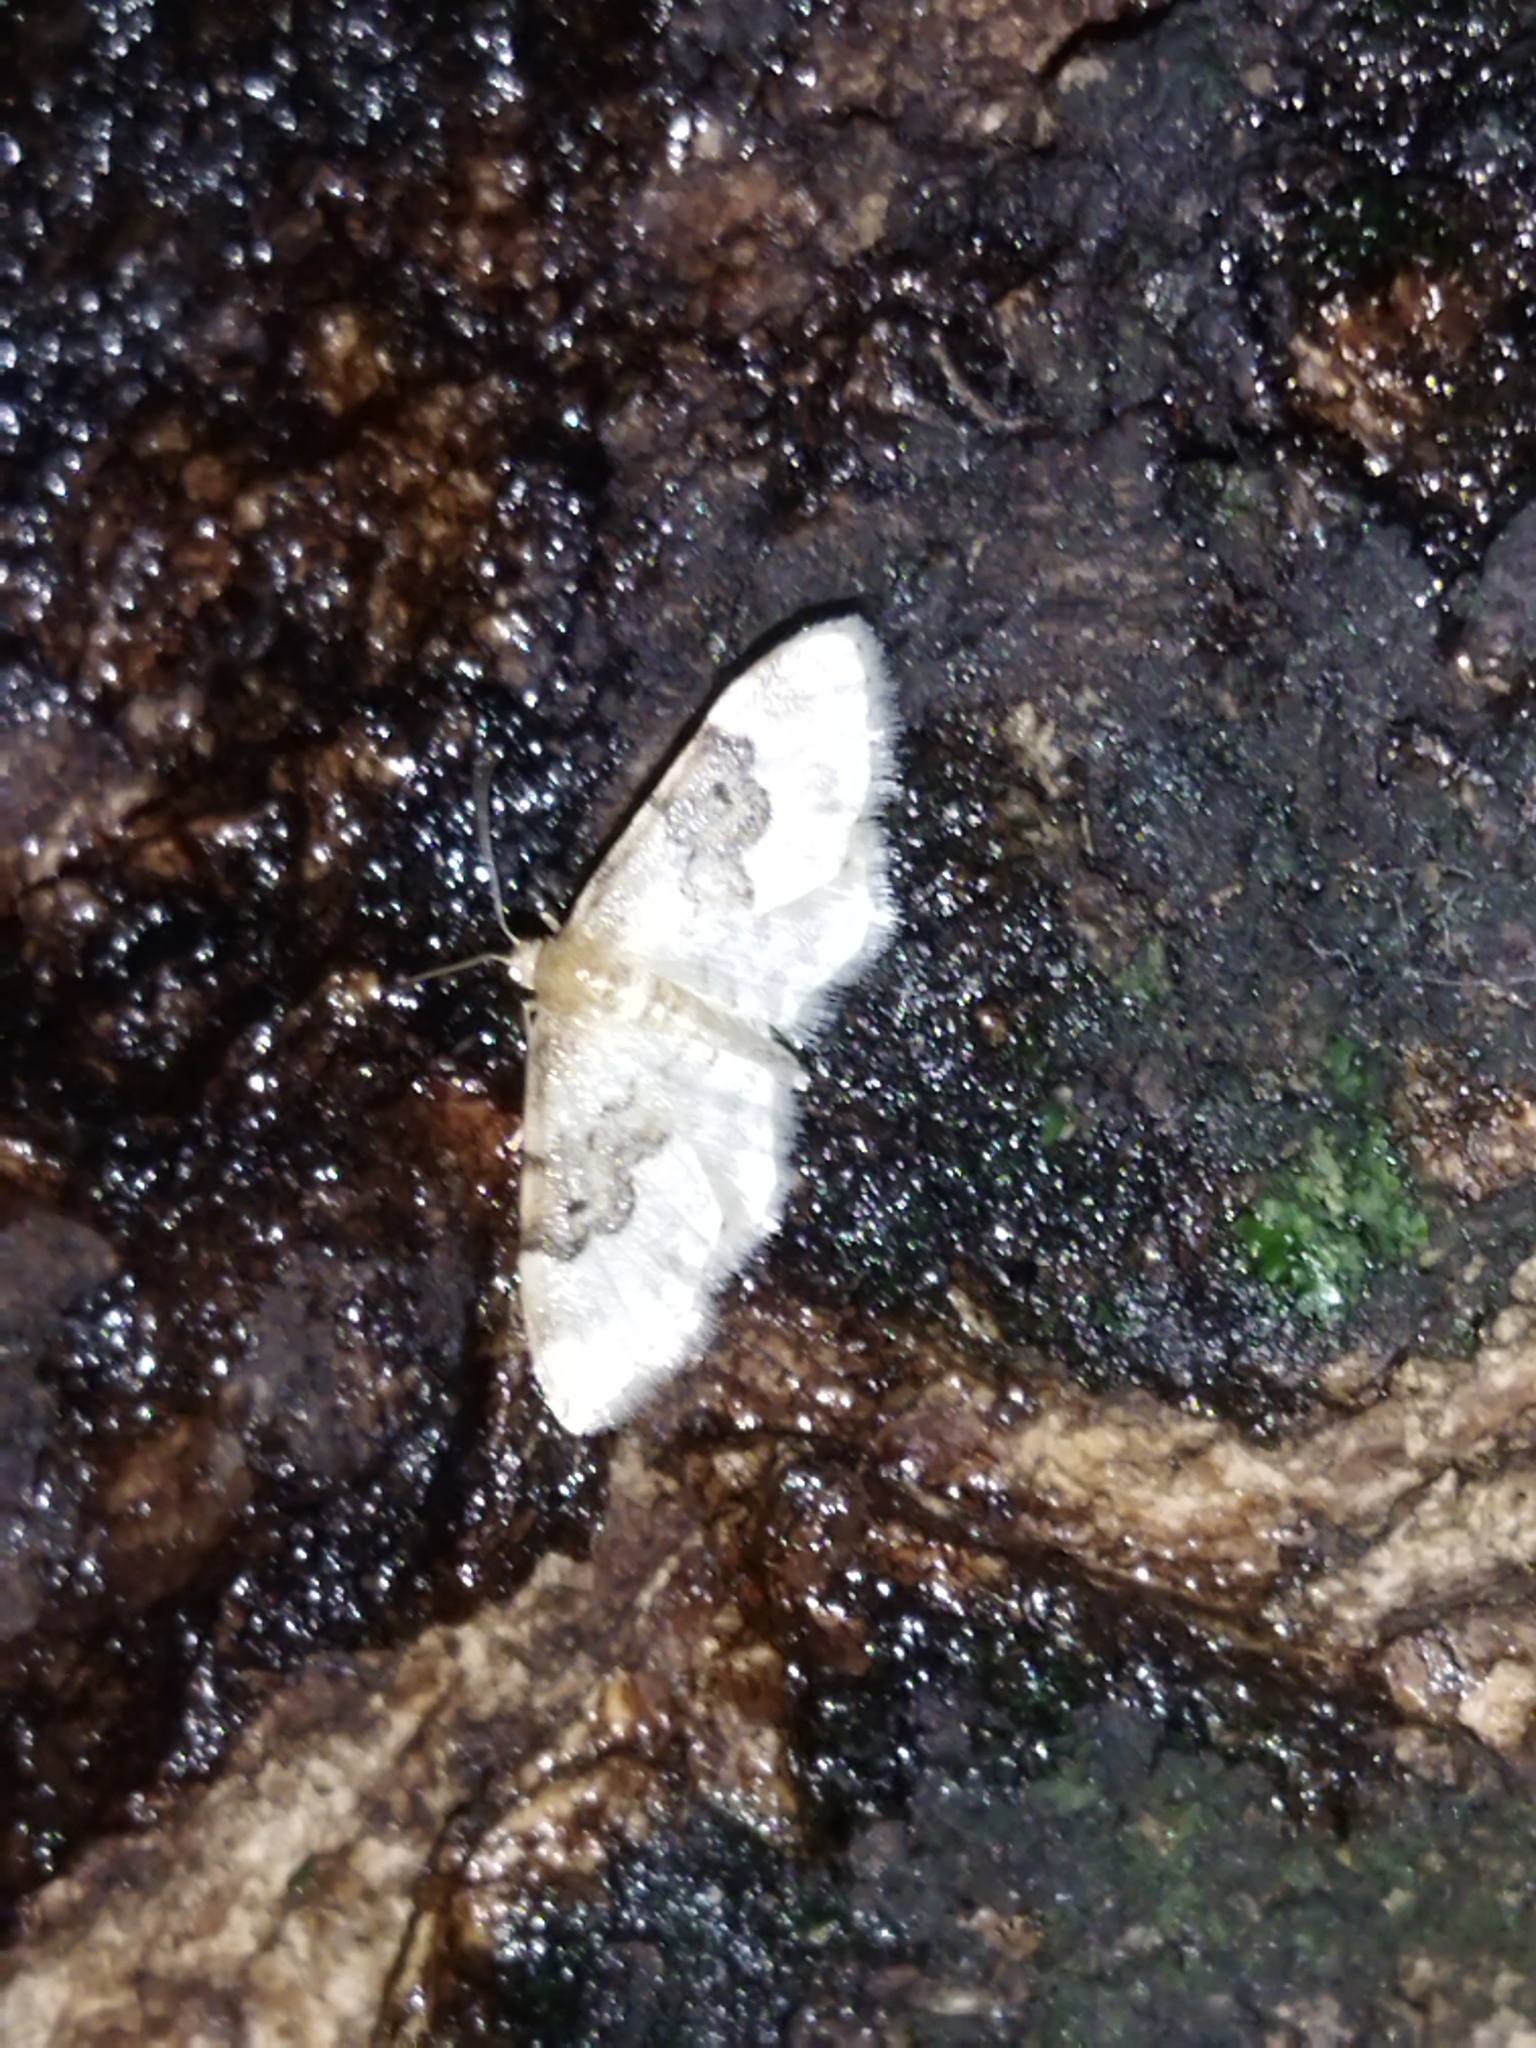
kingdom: Animalia
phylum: Arthropoda
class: Insecta
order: Lepidoptera
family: Geometridae
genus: Idaea
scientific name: Idaea rusticata
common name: Least carpet
